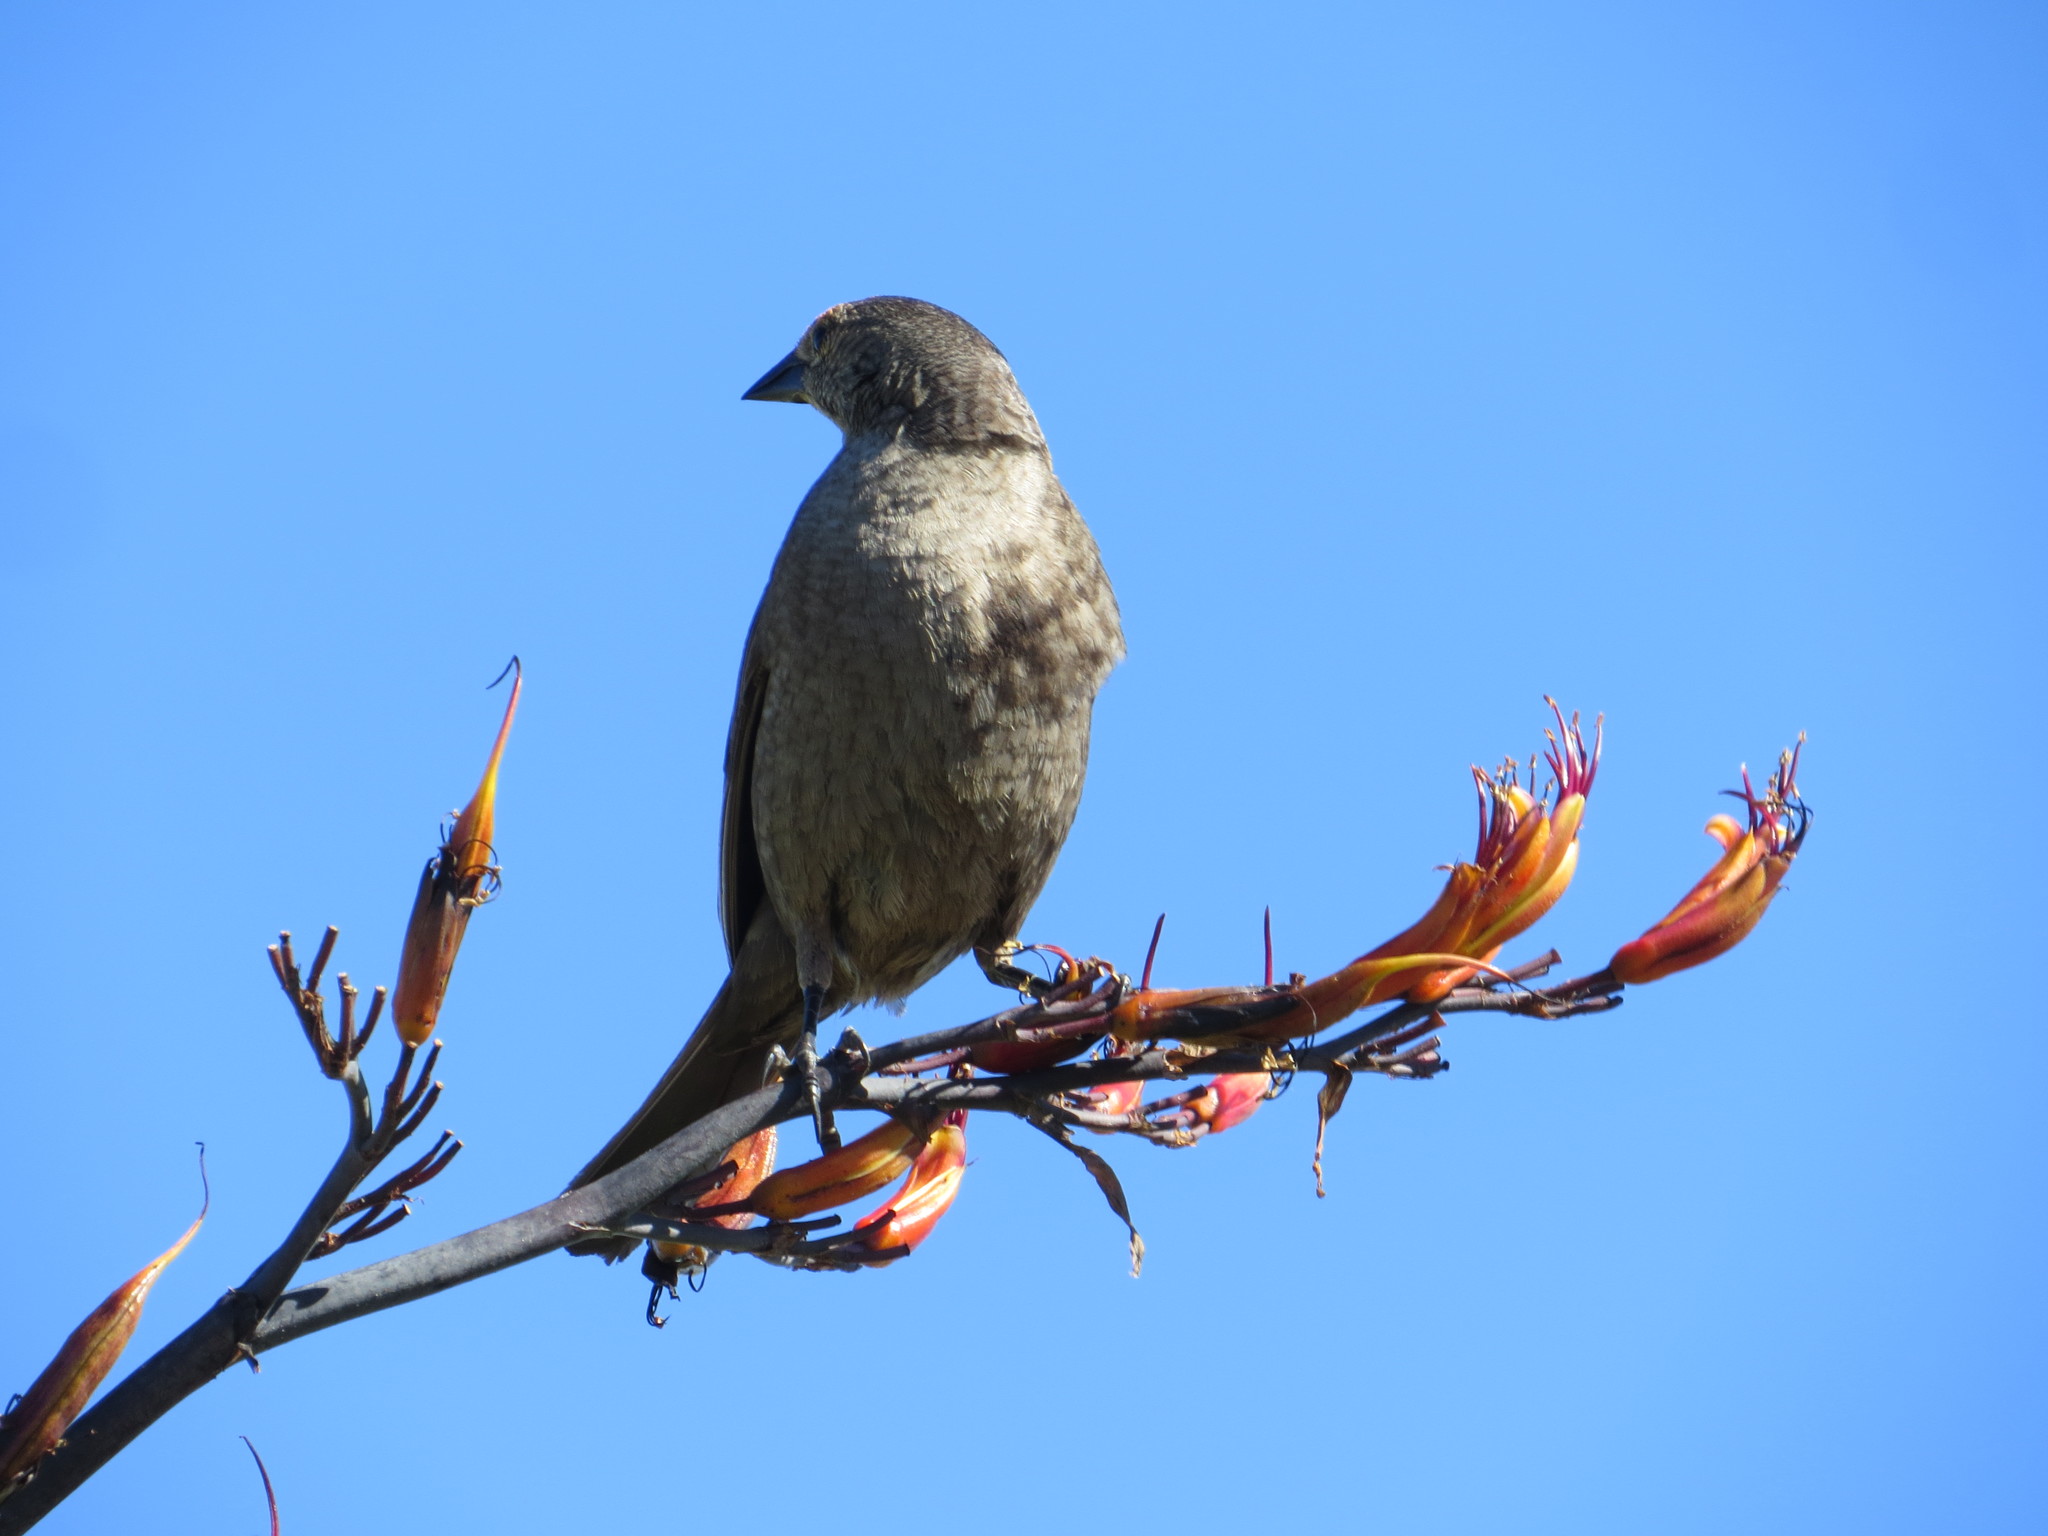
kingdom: Animalia
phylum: Chordata
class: Aves
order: Passeriformes
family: Icteridae
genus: Molothrus
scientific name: Molothrus bonariensis
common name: Shiny cowbird
